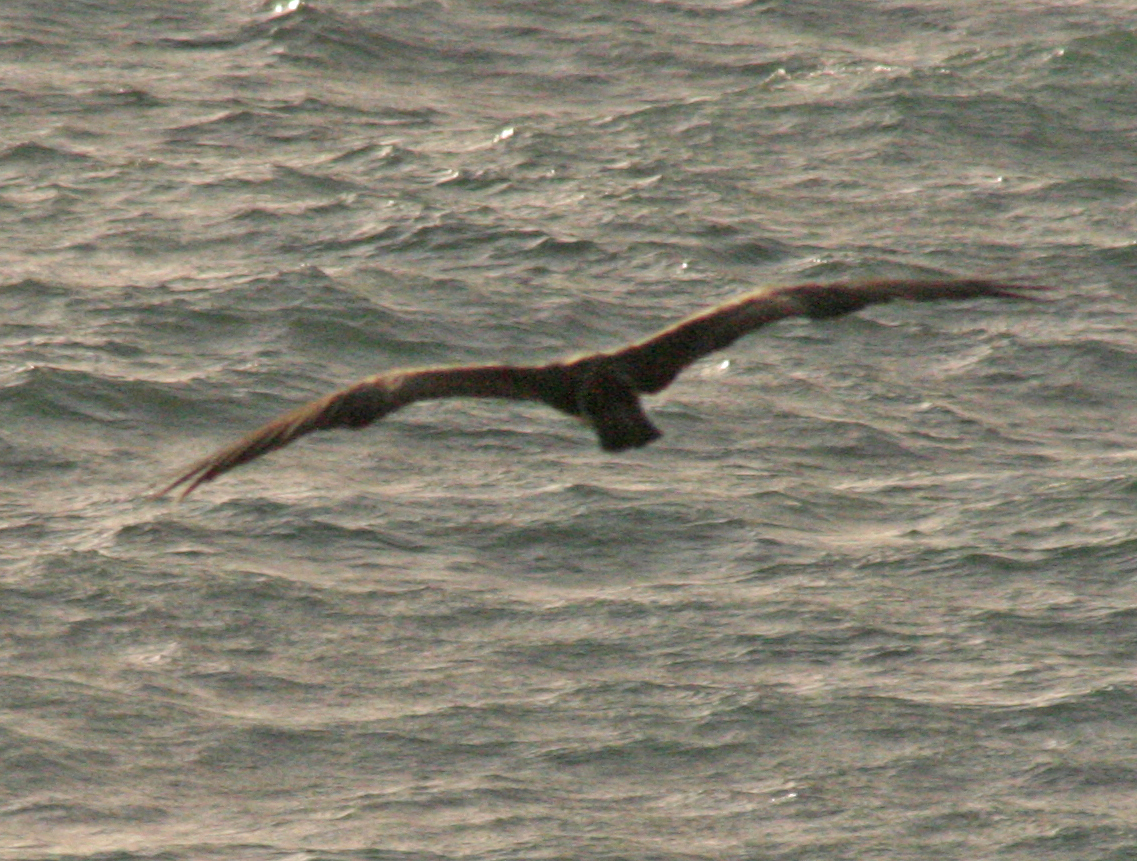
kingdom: Animalia
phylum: Chordata
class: Aves
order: Accipitriformes
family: Pandionidae
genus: Pandion
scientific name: Pandion haliaetus
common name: Osprey
